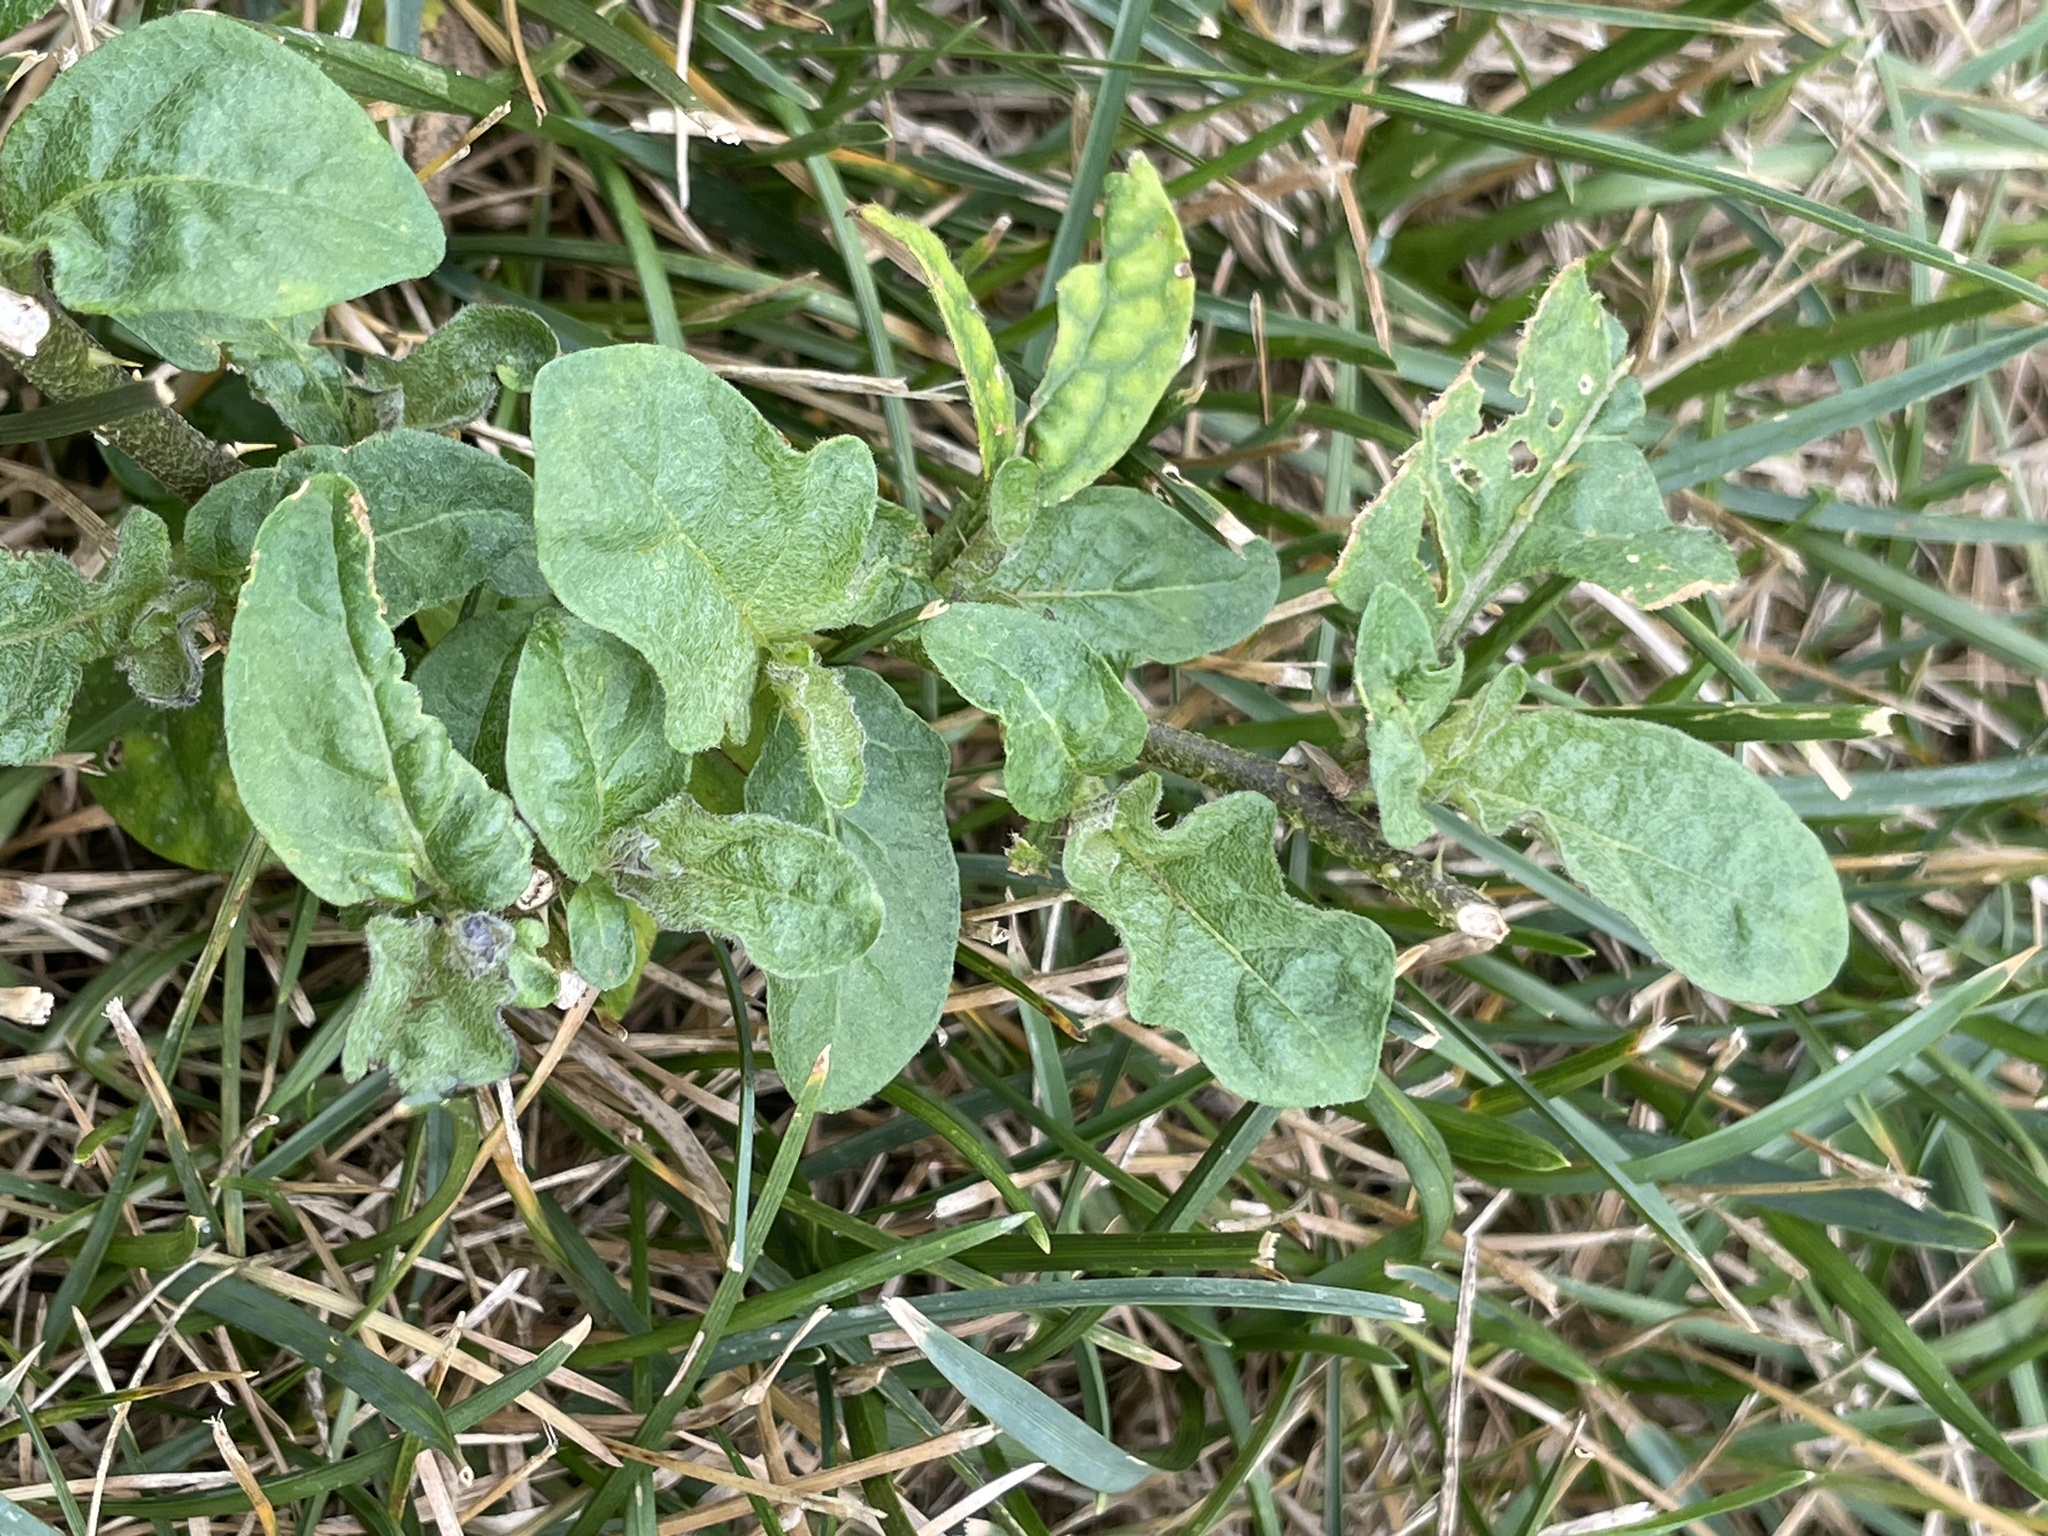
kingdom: Plantae
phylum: Tracheophyta
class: Magnoliopsida
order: Solanales
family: Solanaceae
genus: Solanum
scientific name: Solanum carolinense
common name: Horse-nettle
